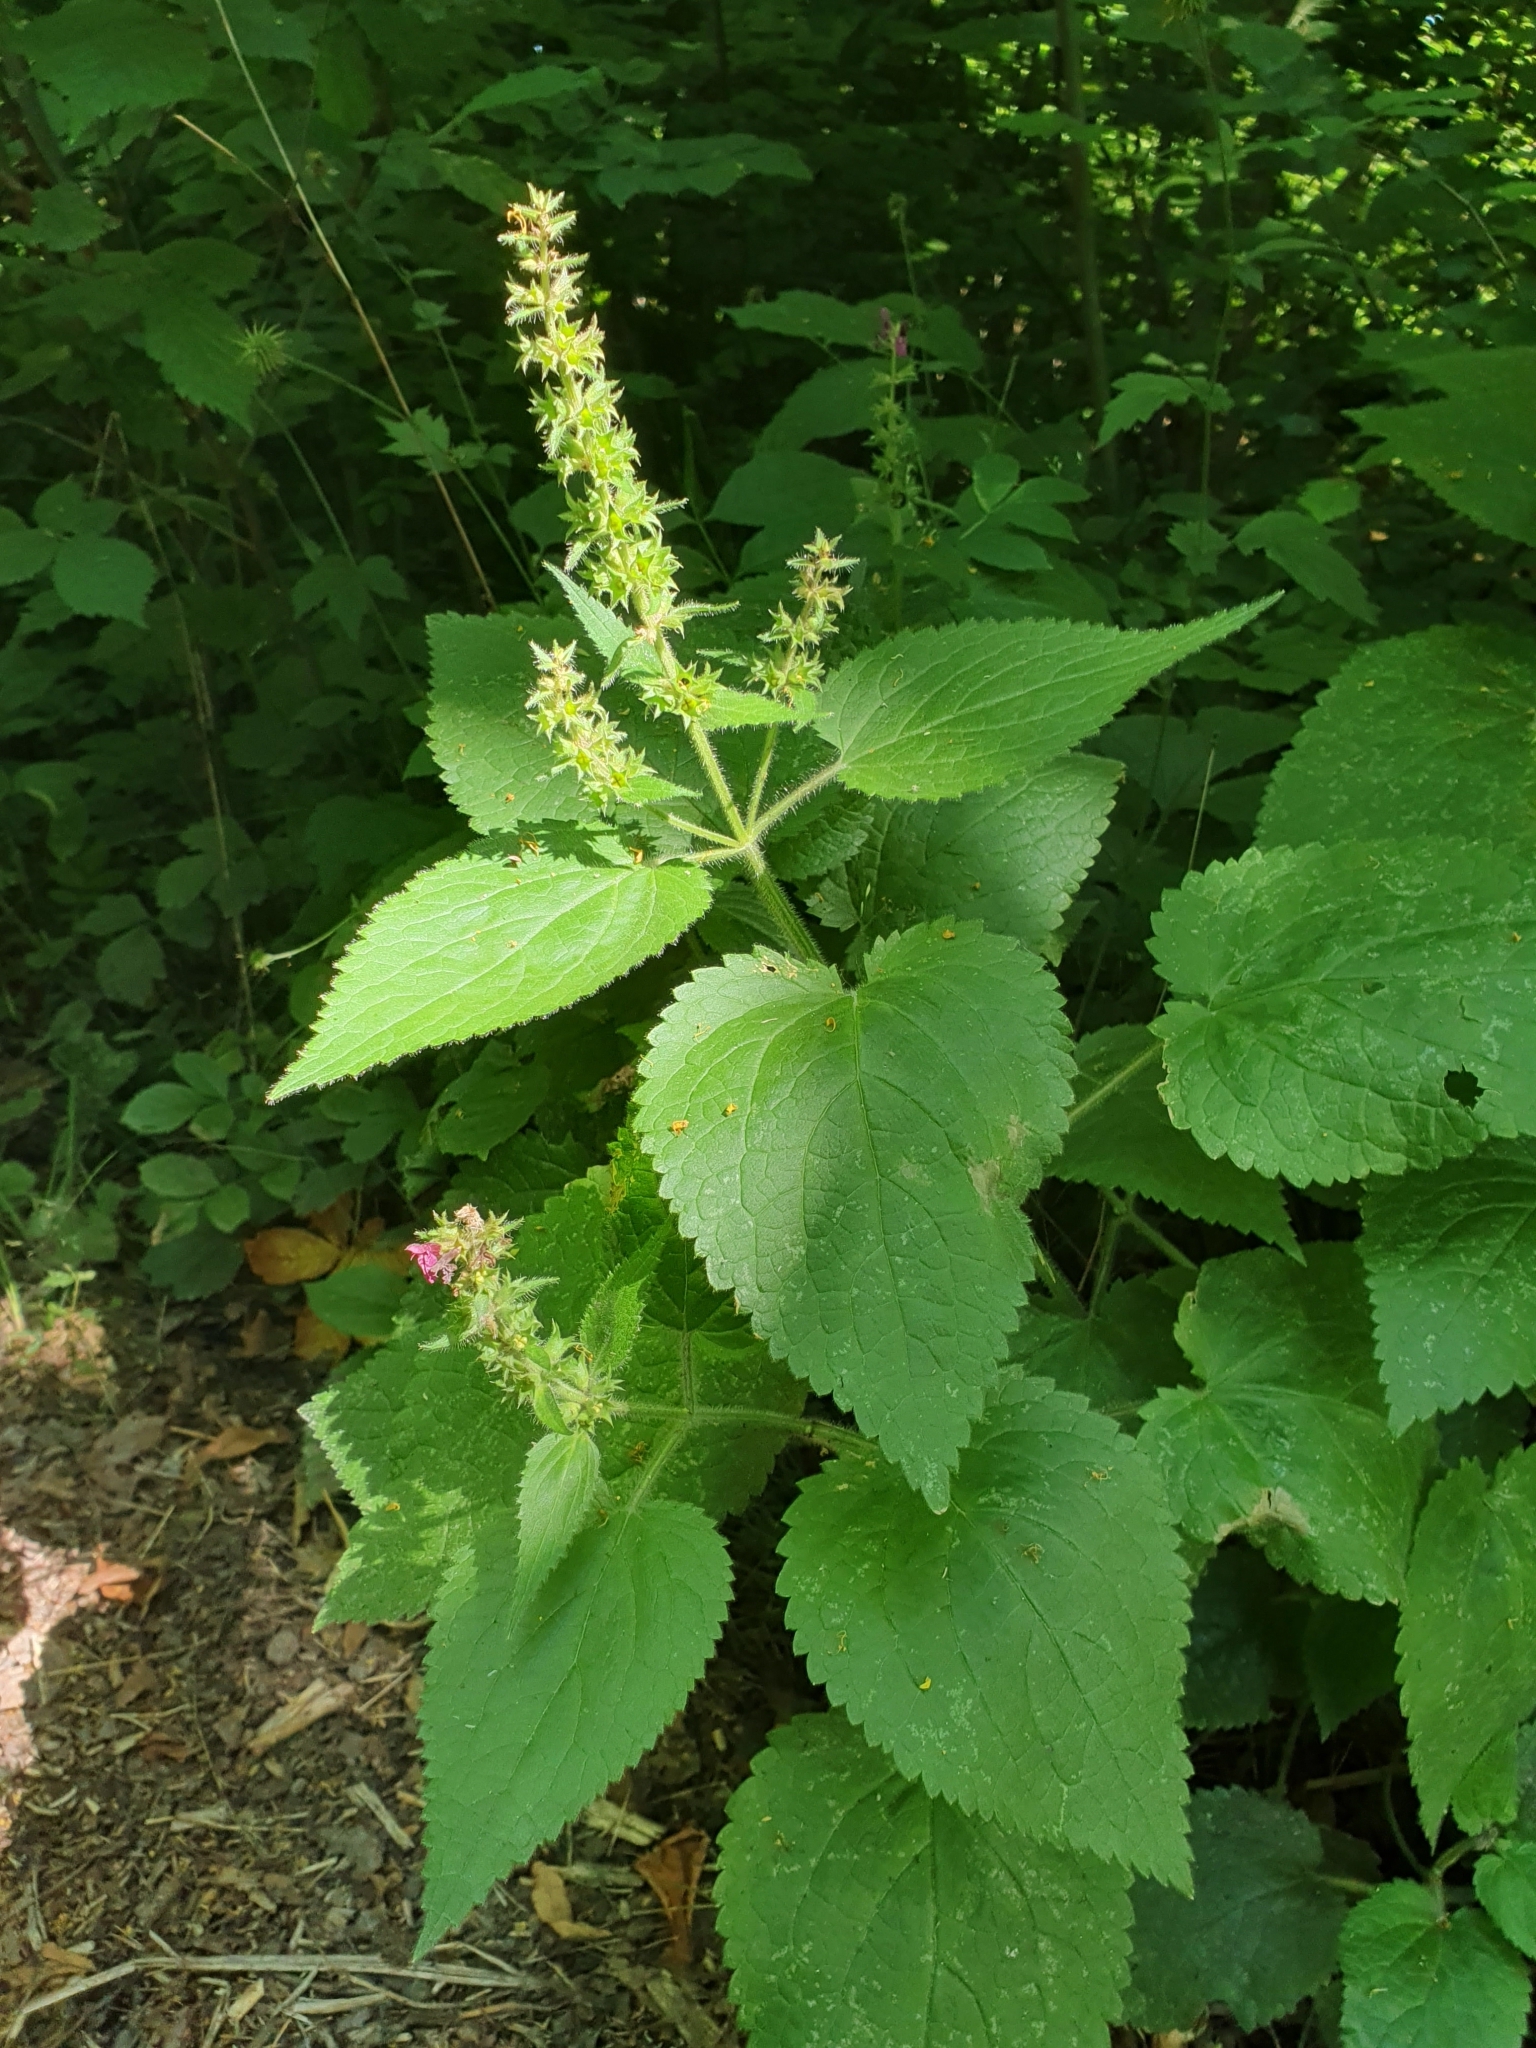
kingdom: Plantae
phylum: Tracheophyta
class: Magnoliopsida
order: Lamiales
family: Lamiaceae
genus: Stachys
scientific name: Stachys sylvatica
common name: Hedge woundwort
